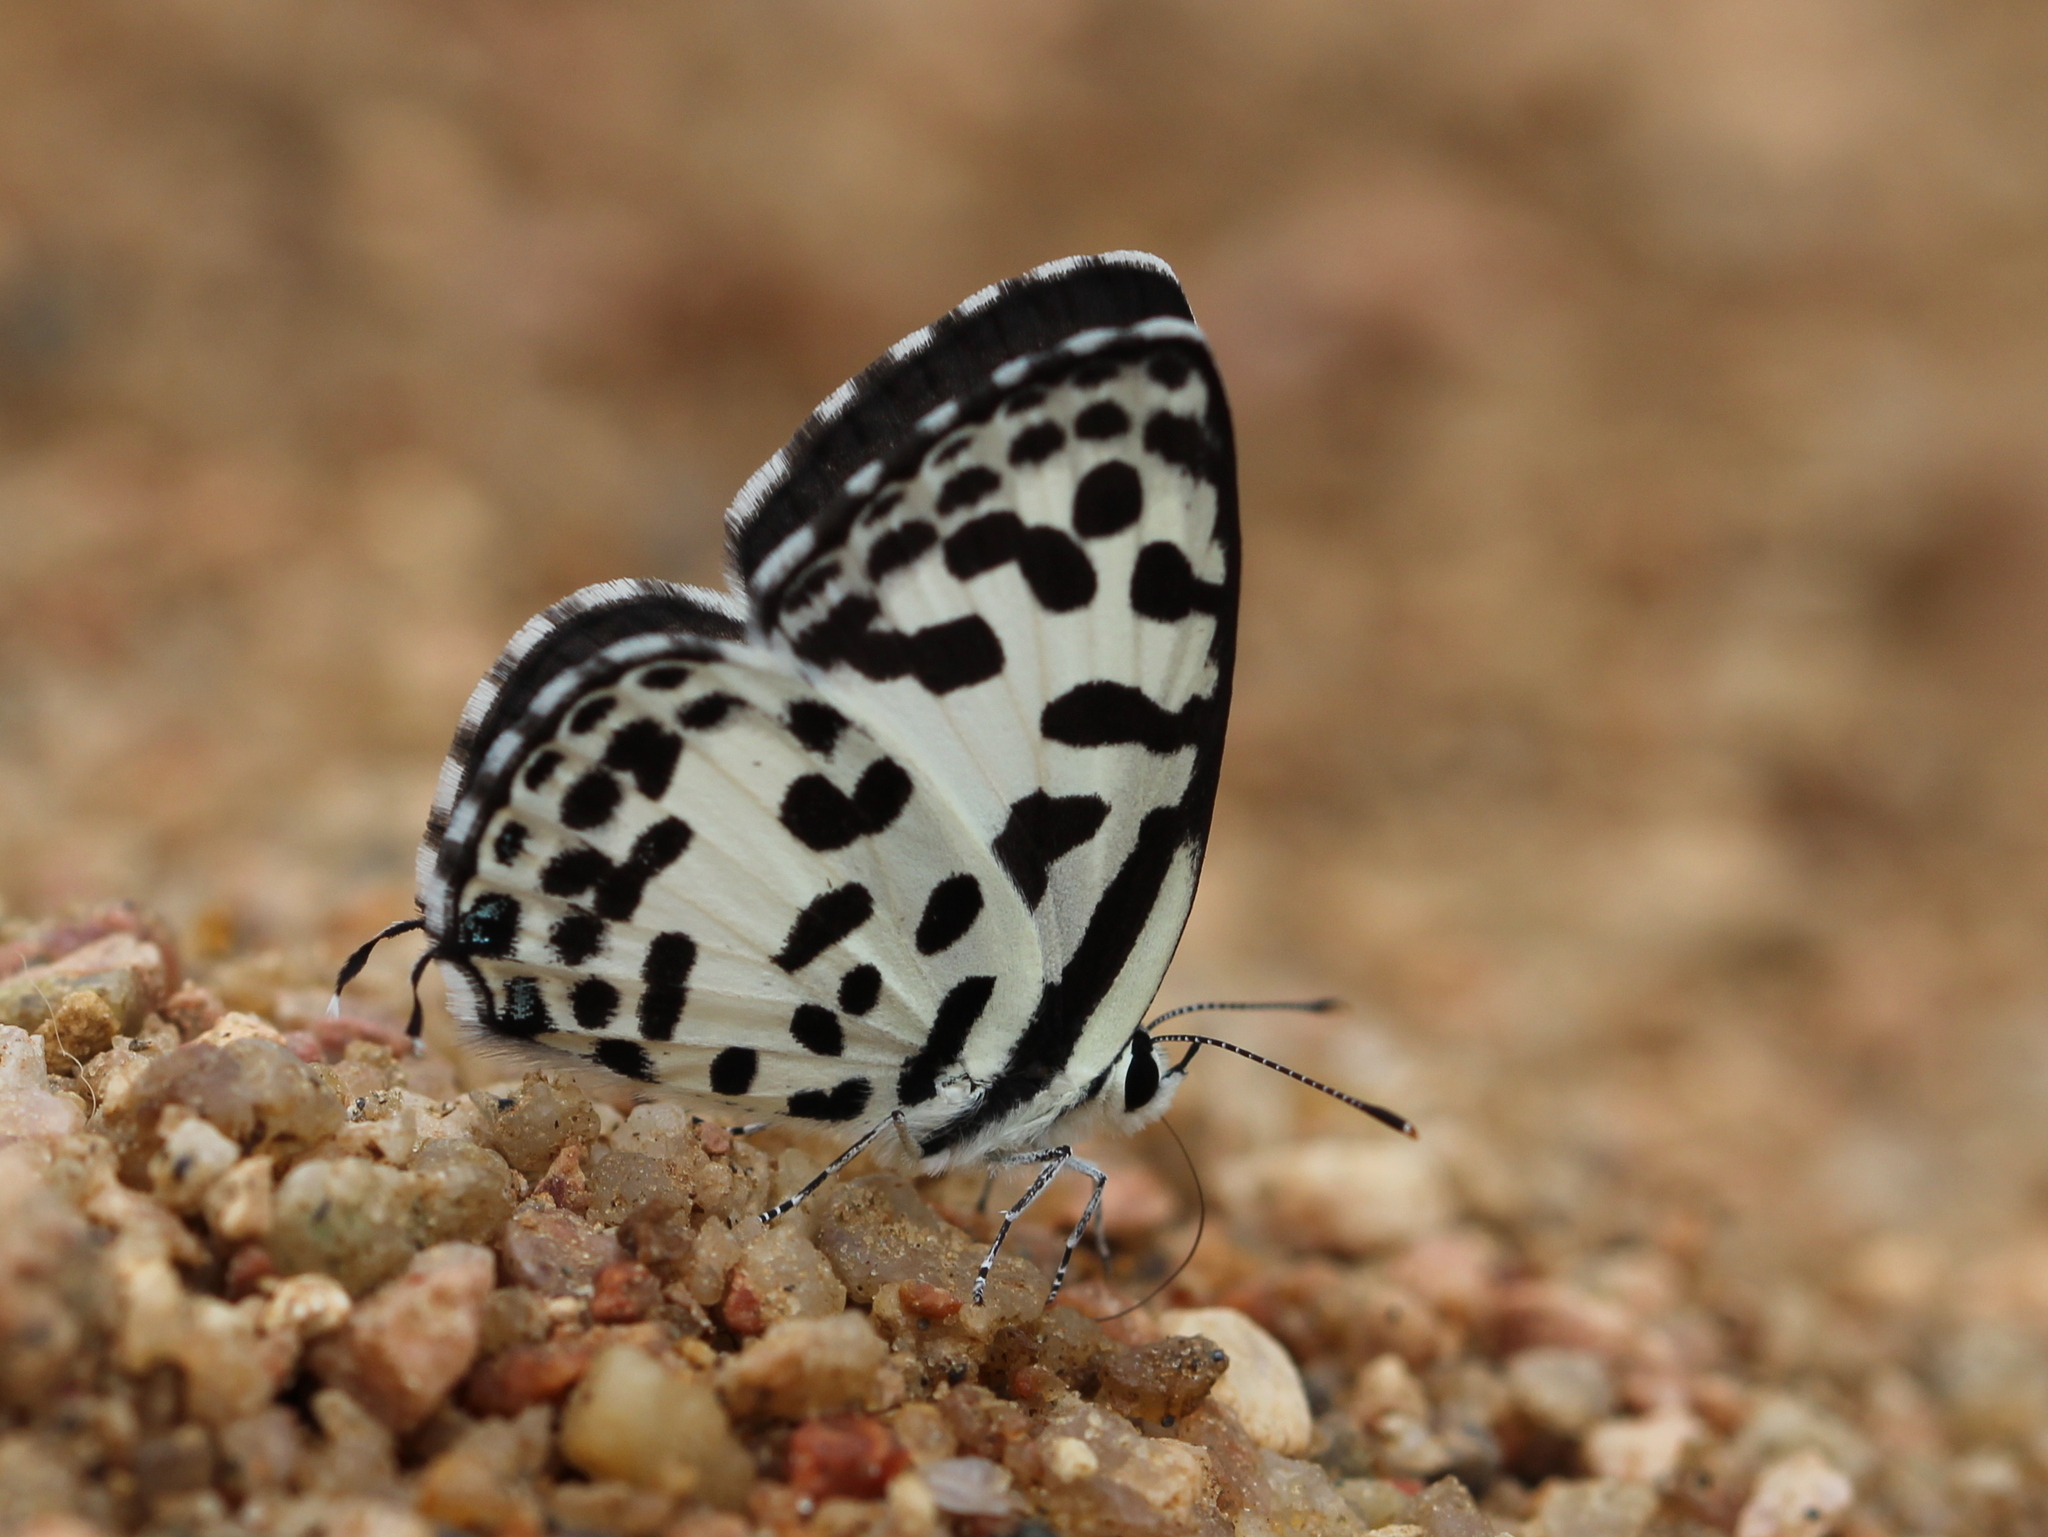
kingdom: Animalia
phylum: Arthropoda
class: Insecta
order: Lepidoptera
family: Lycaenidae
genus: Castalius
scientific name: Castalius rosimon
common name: Common pierrot
